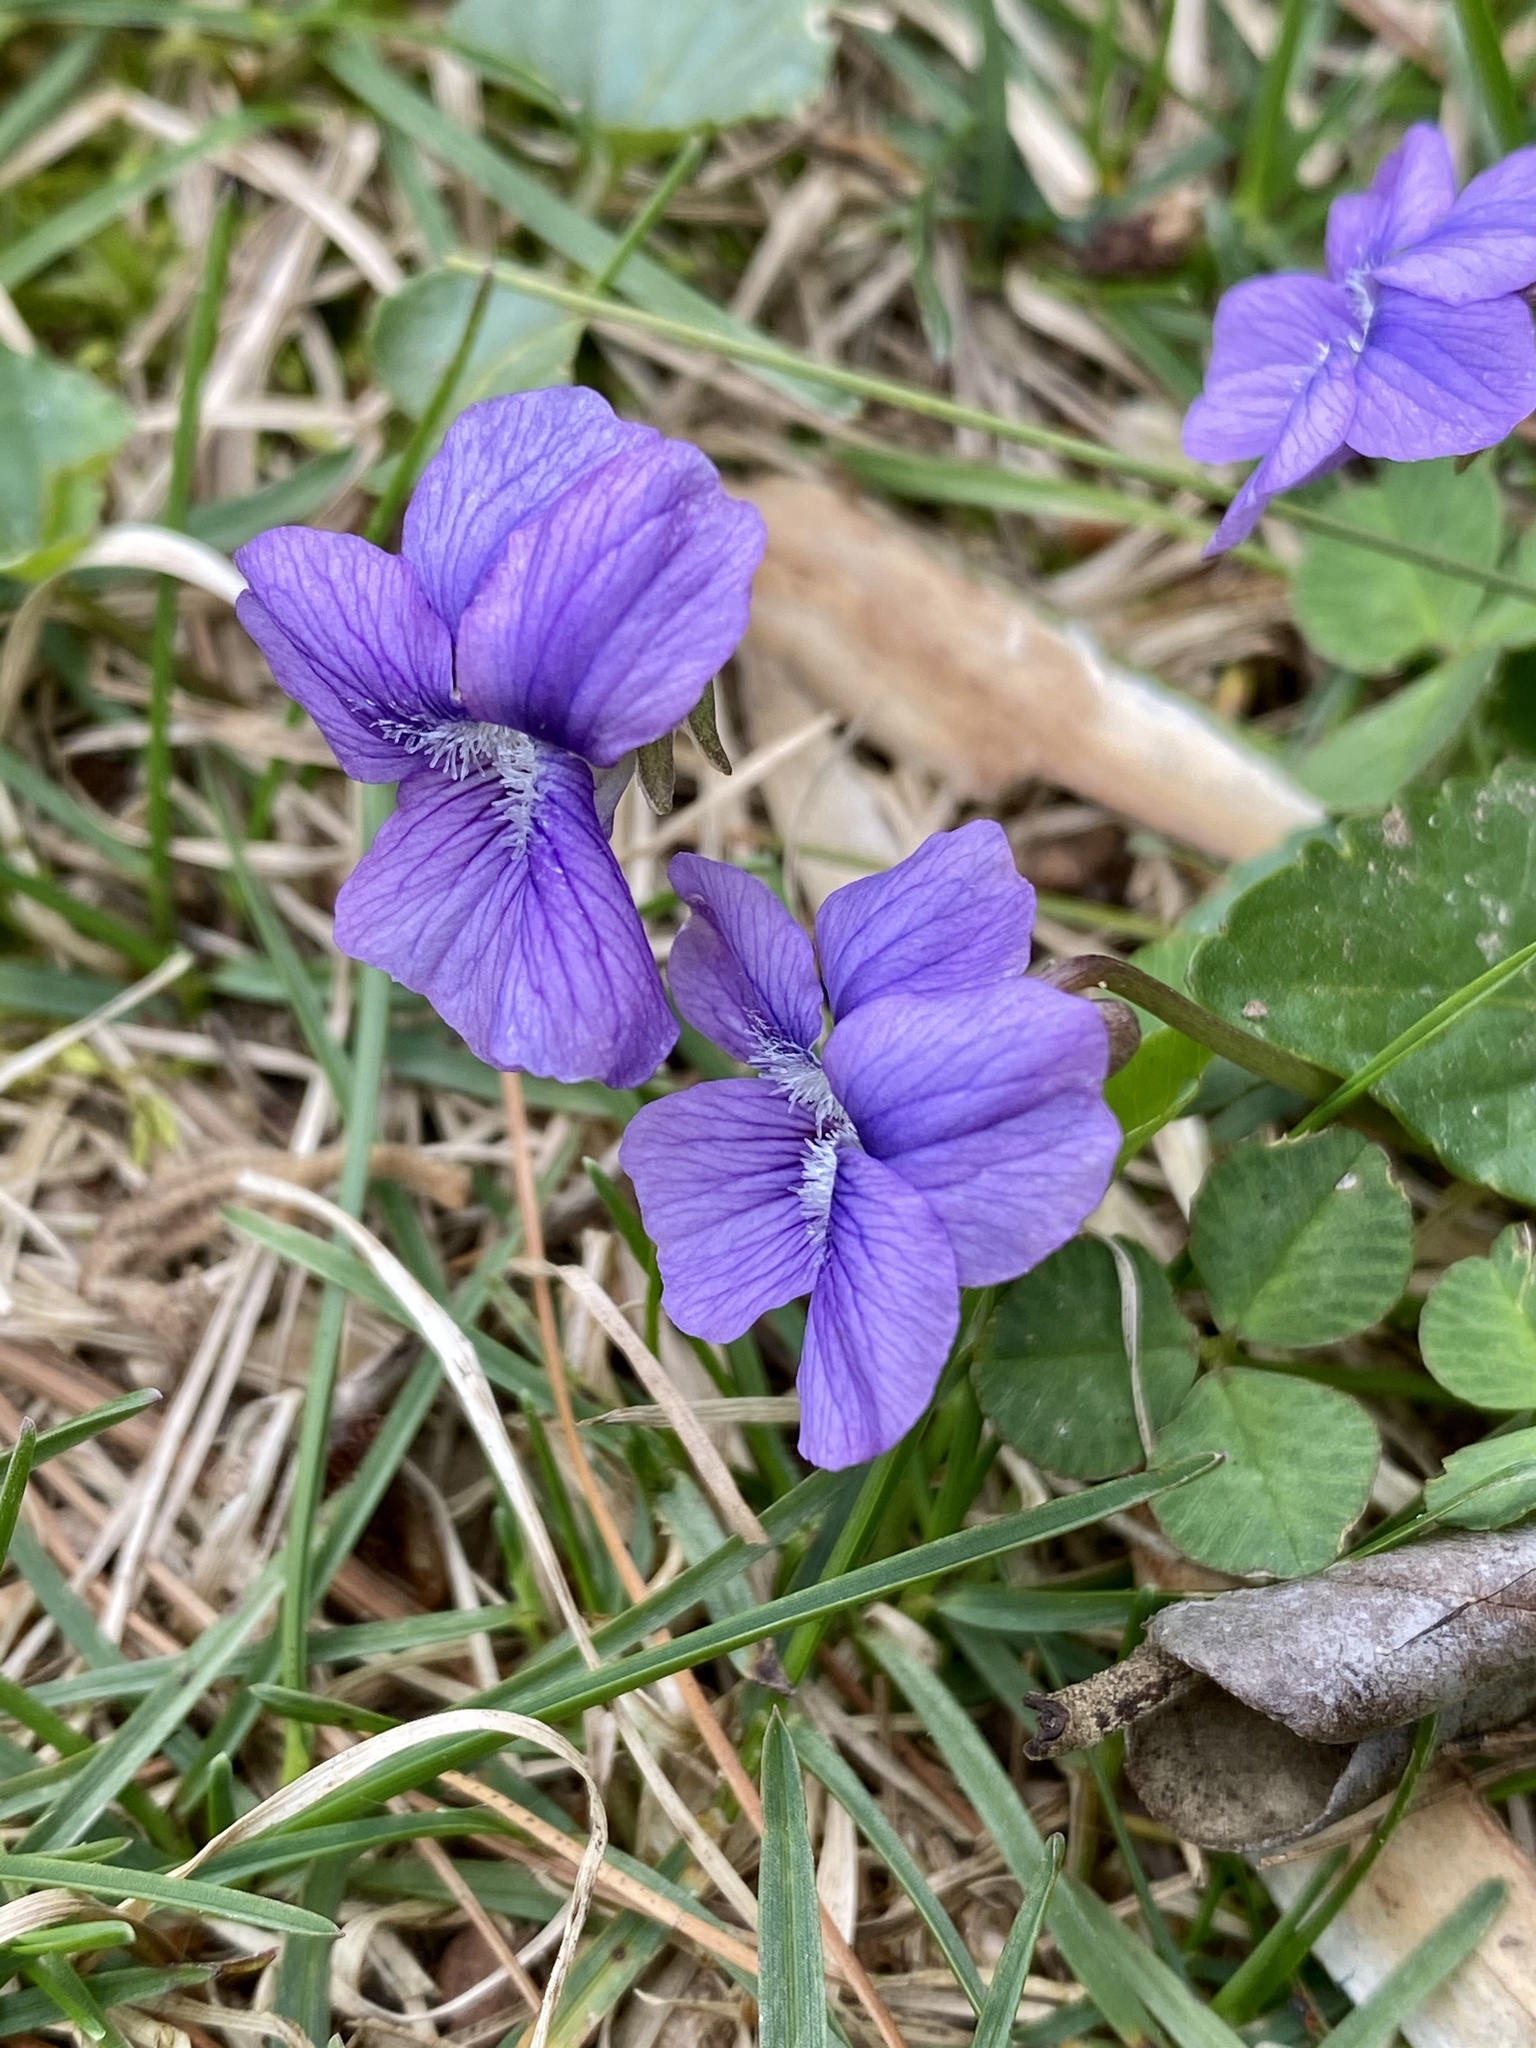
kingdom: Plantae
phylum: Tracheophyta
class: Magnoliopsida
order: Malpighiales
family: Violaceae
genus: Viola
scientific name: Viola sororia
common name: Dooryard violet
